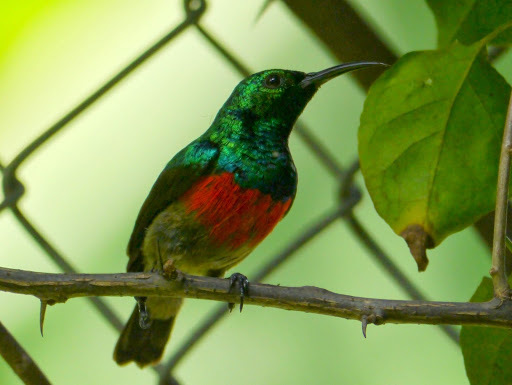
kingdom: Animalia
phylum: Chordata
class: Aves
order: Passeriformes
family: Nectariniidae
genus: Cinnyris
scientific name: Cinnyris chloropygius
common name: Olive-bellied sunbird
